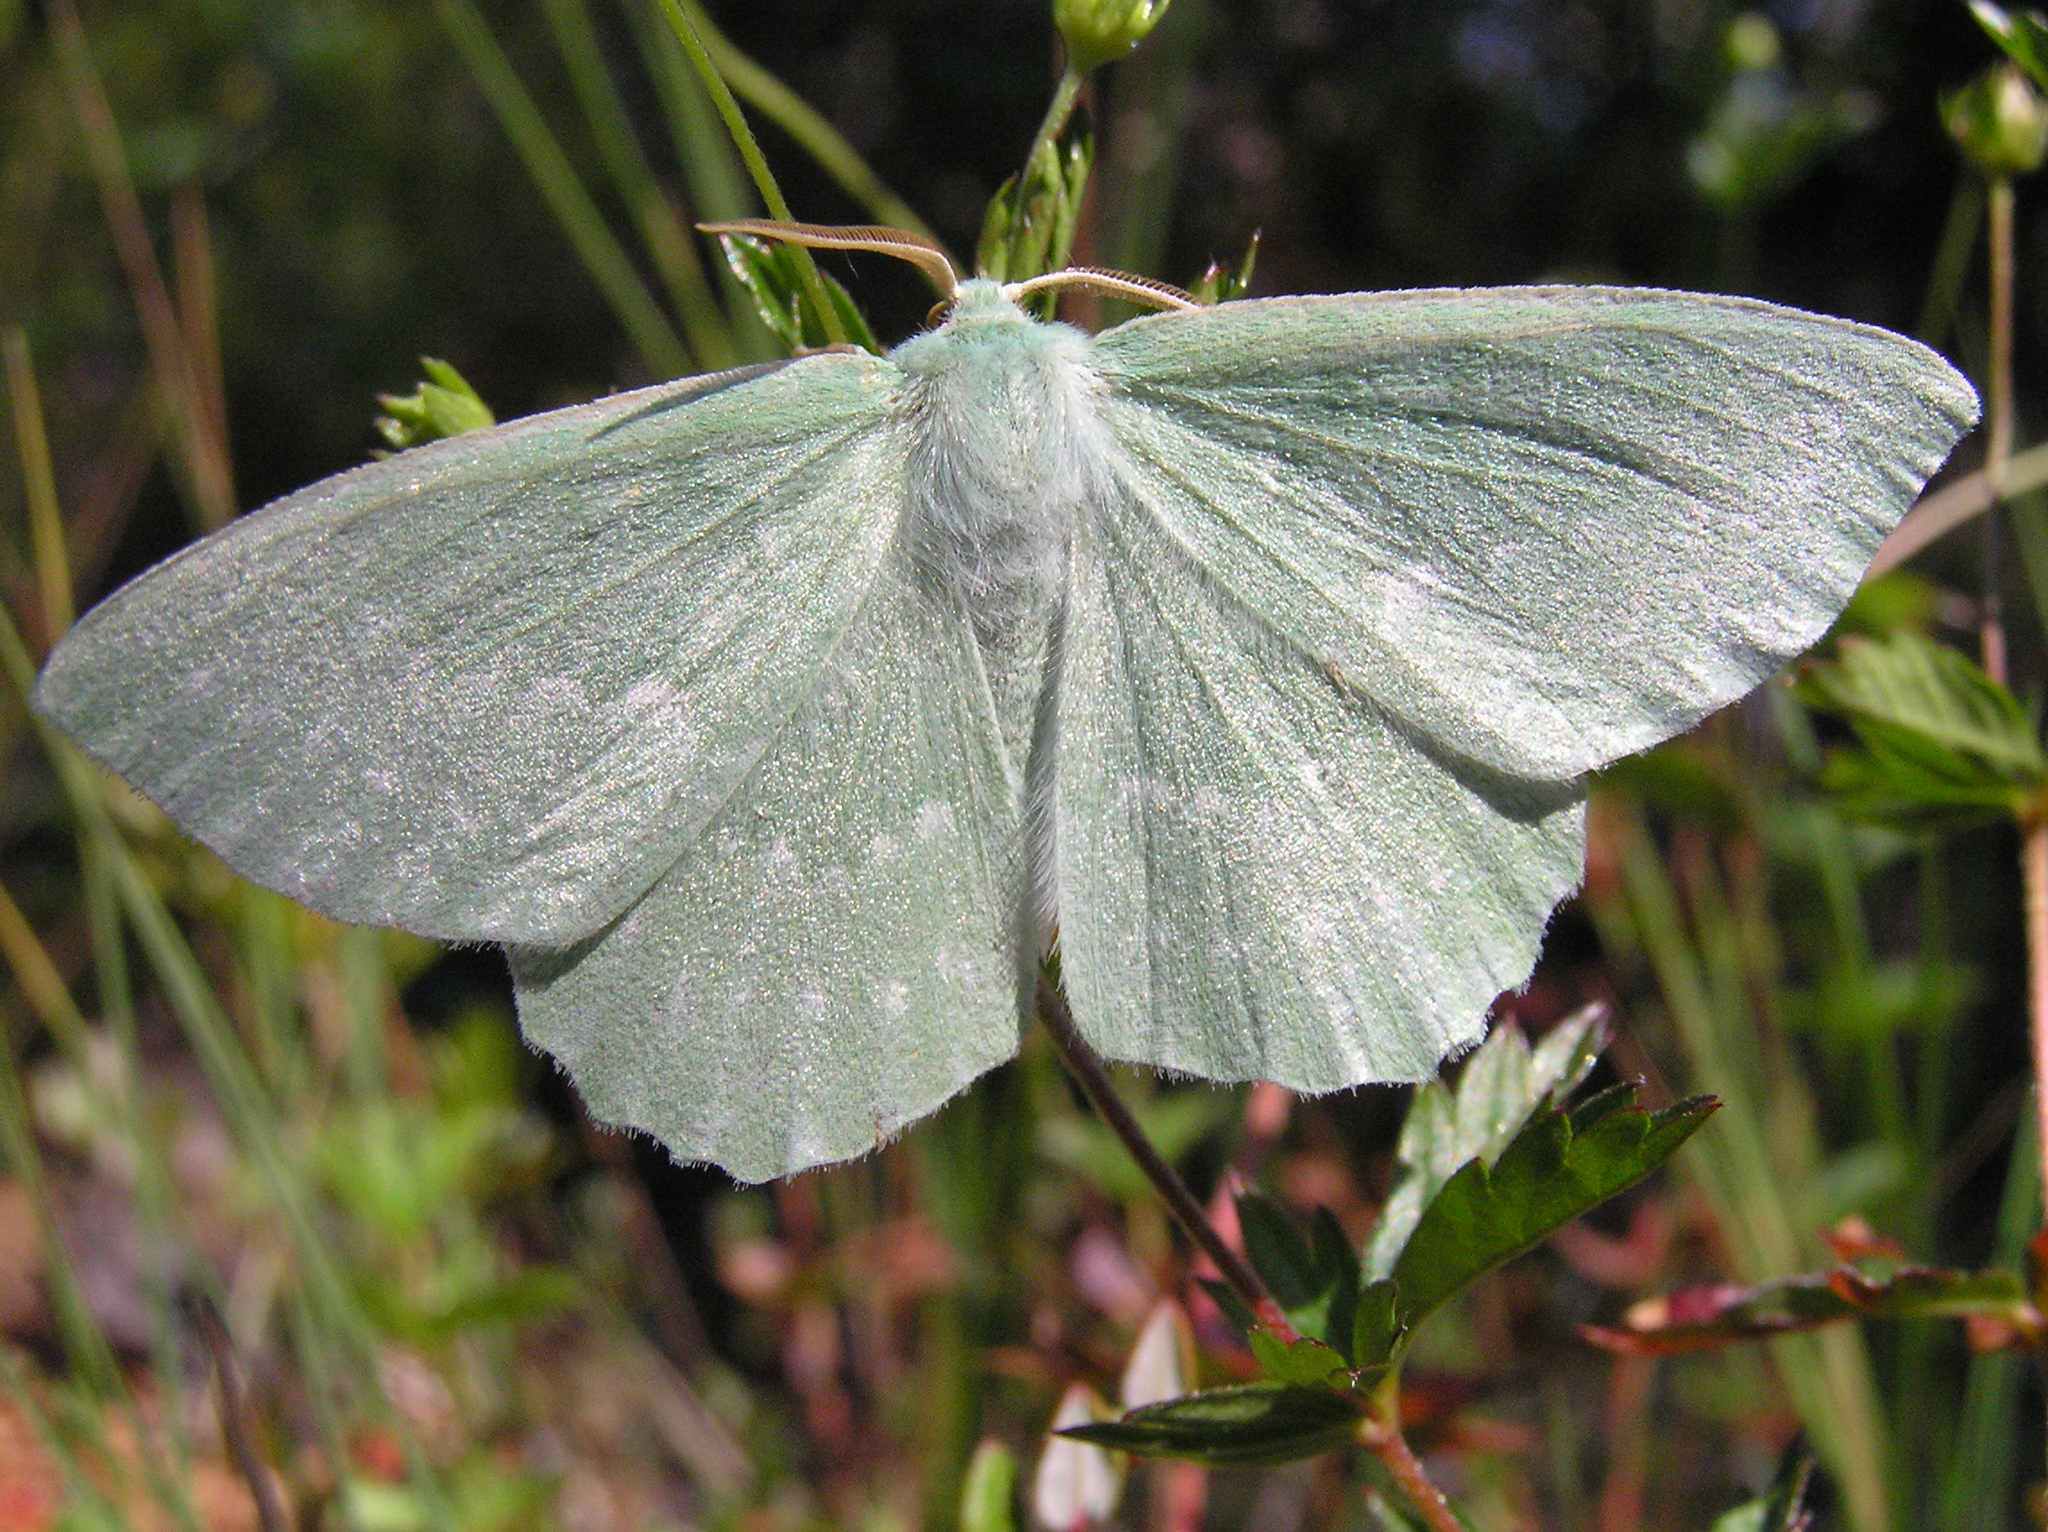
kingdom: Animalia
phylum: Arthropoda
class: Insecta
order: Lepidoptera
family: Geometridae
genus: Geometra
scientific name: Geometra papilionaria
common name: Large emerald
